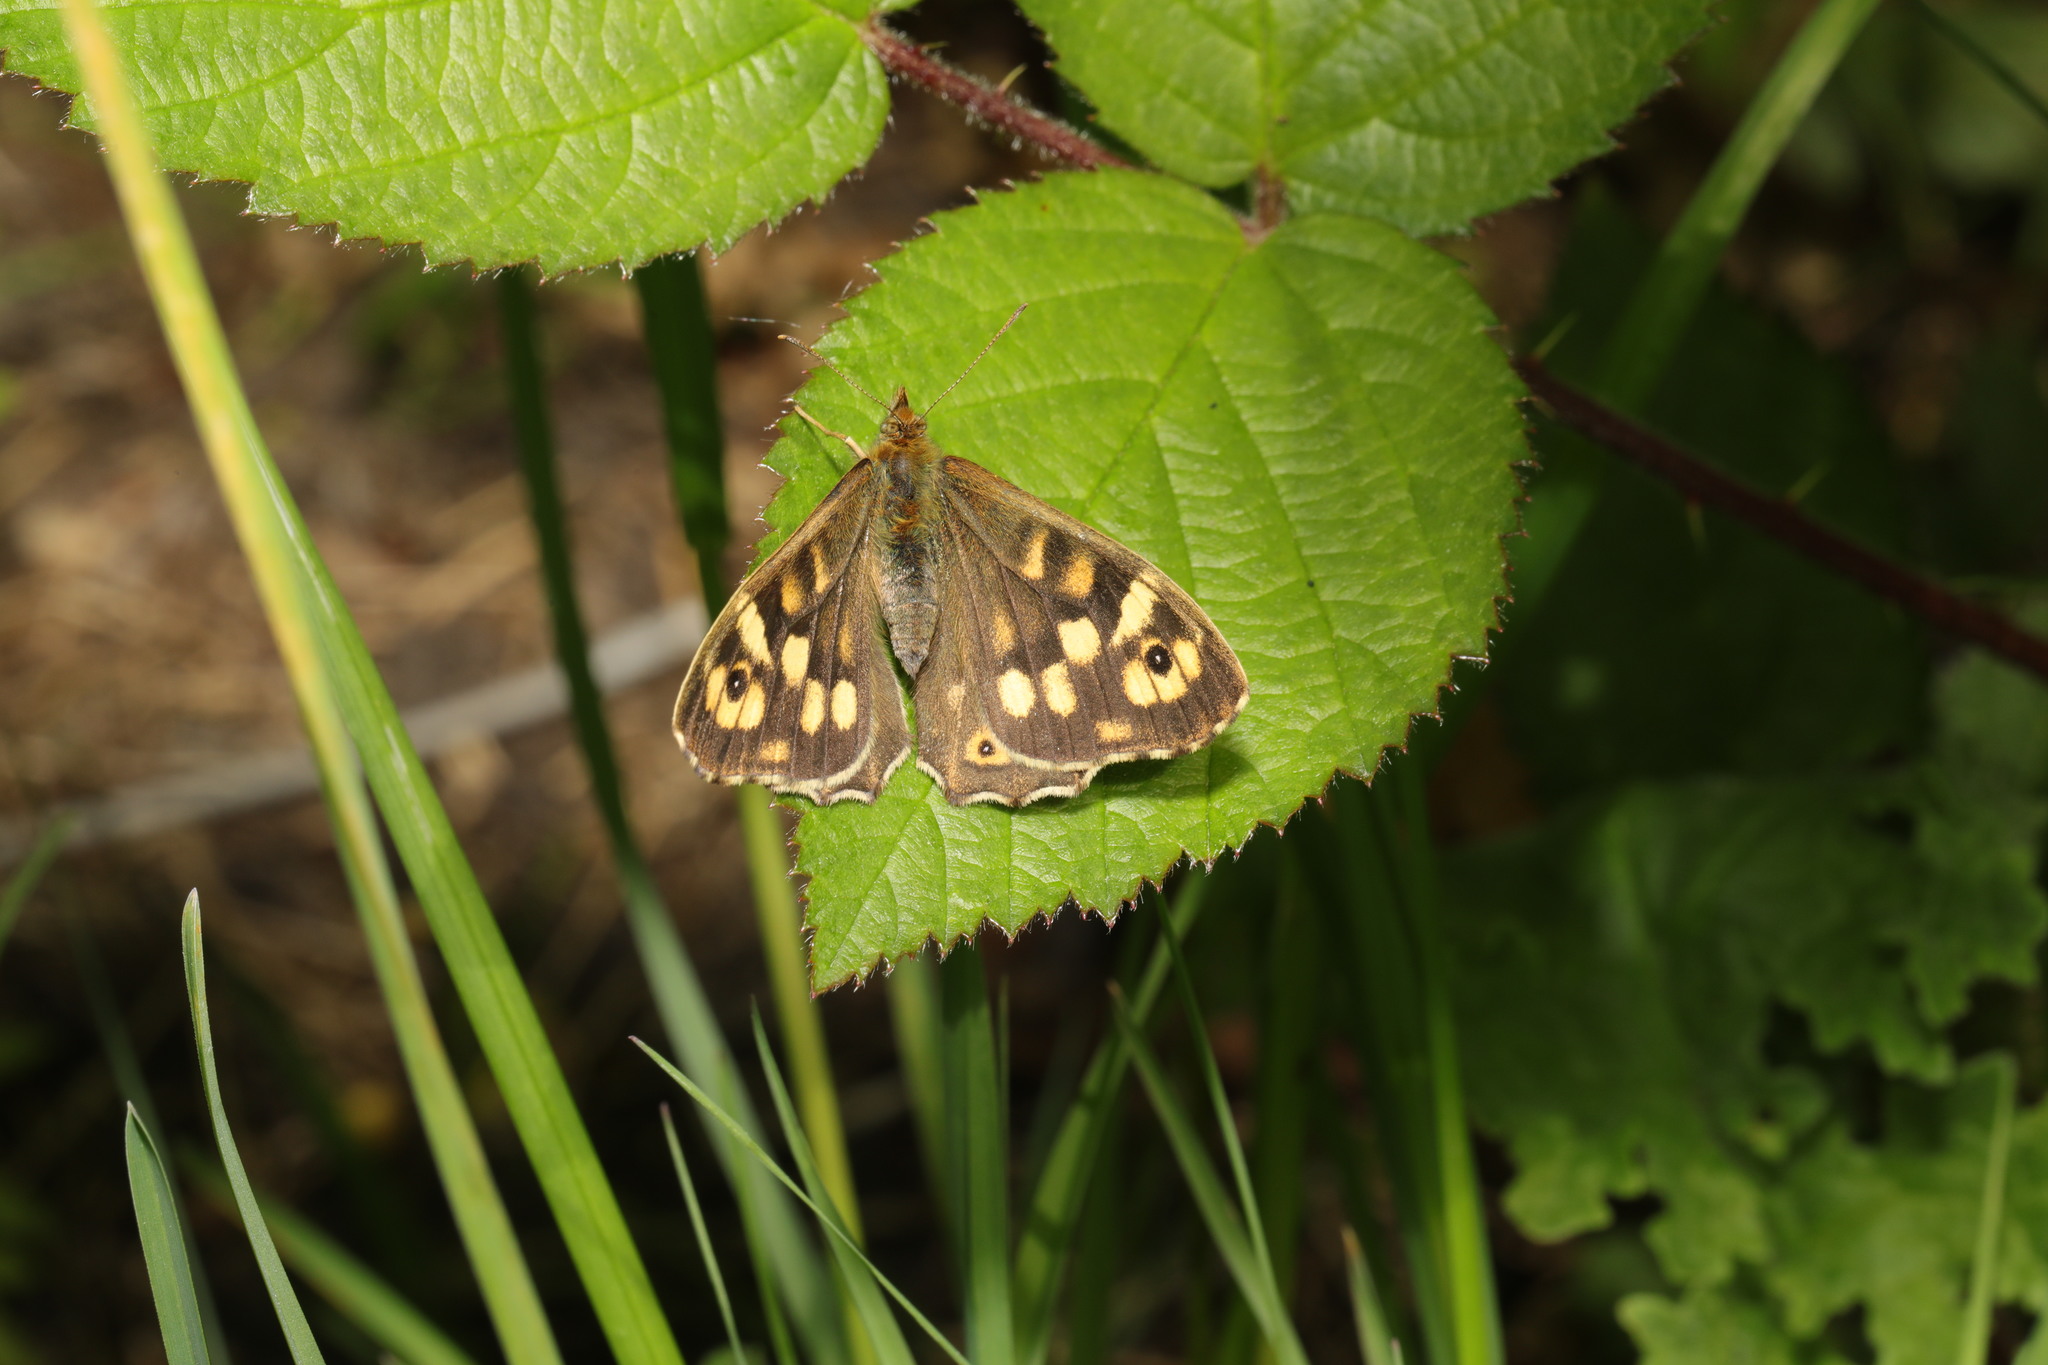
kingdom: Animalia
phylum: Arthropoda
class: Insecta
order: Lepidoptera
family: Nymphalidae
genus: Pararge
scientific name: Pararge aegeria
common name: Speckled wood
